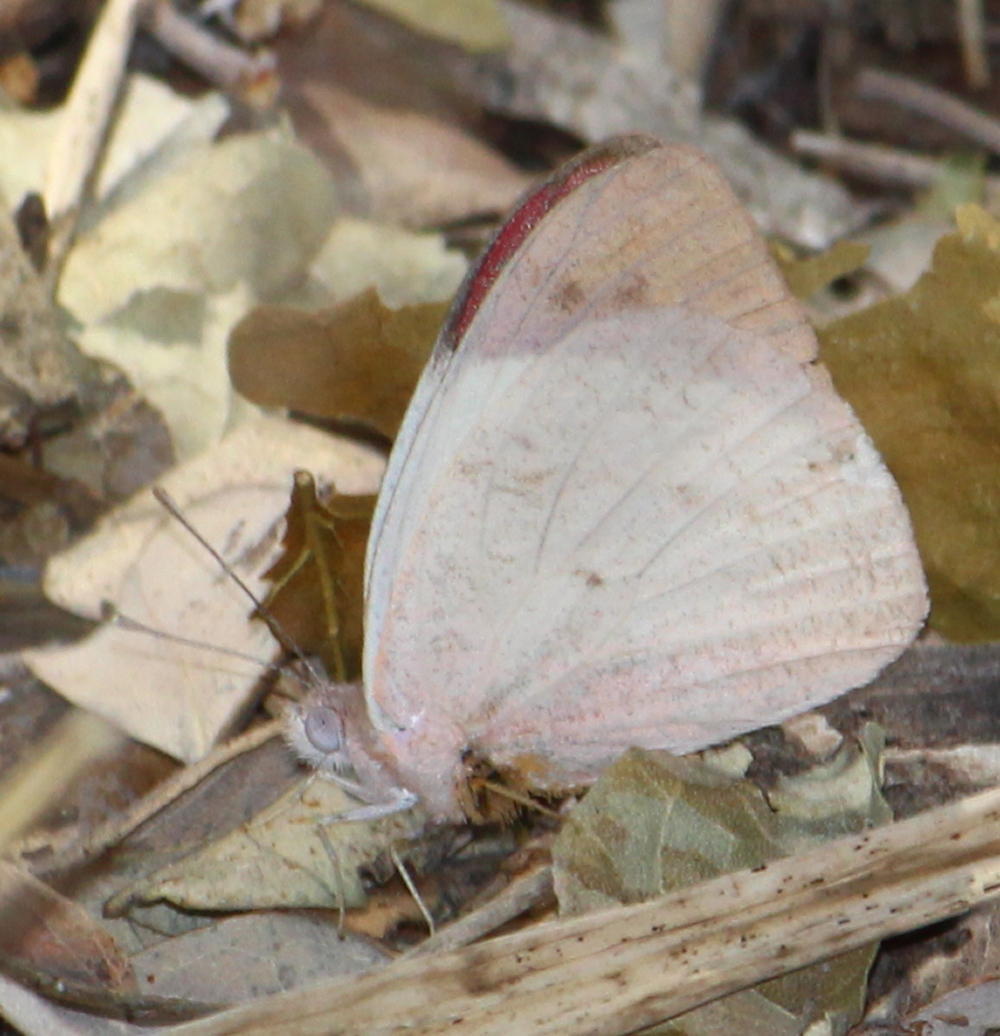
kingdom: Animalia
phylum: Arthropoda
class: Insecta
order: Lepidoptera
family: Pieridae
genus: Colotis
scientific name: Colotis regina
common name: Queen purple tip
